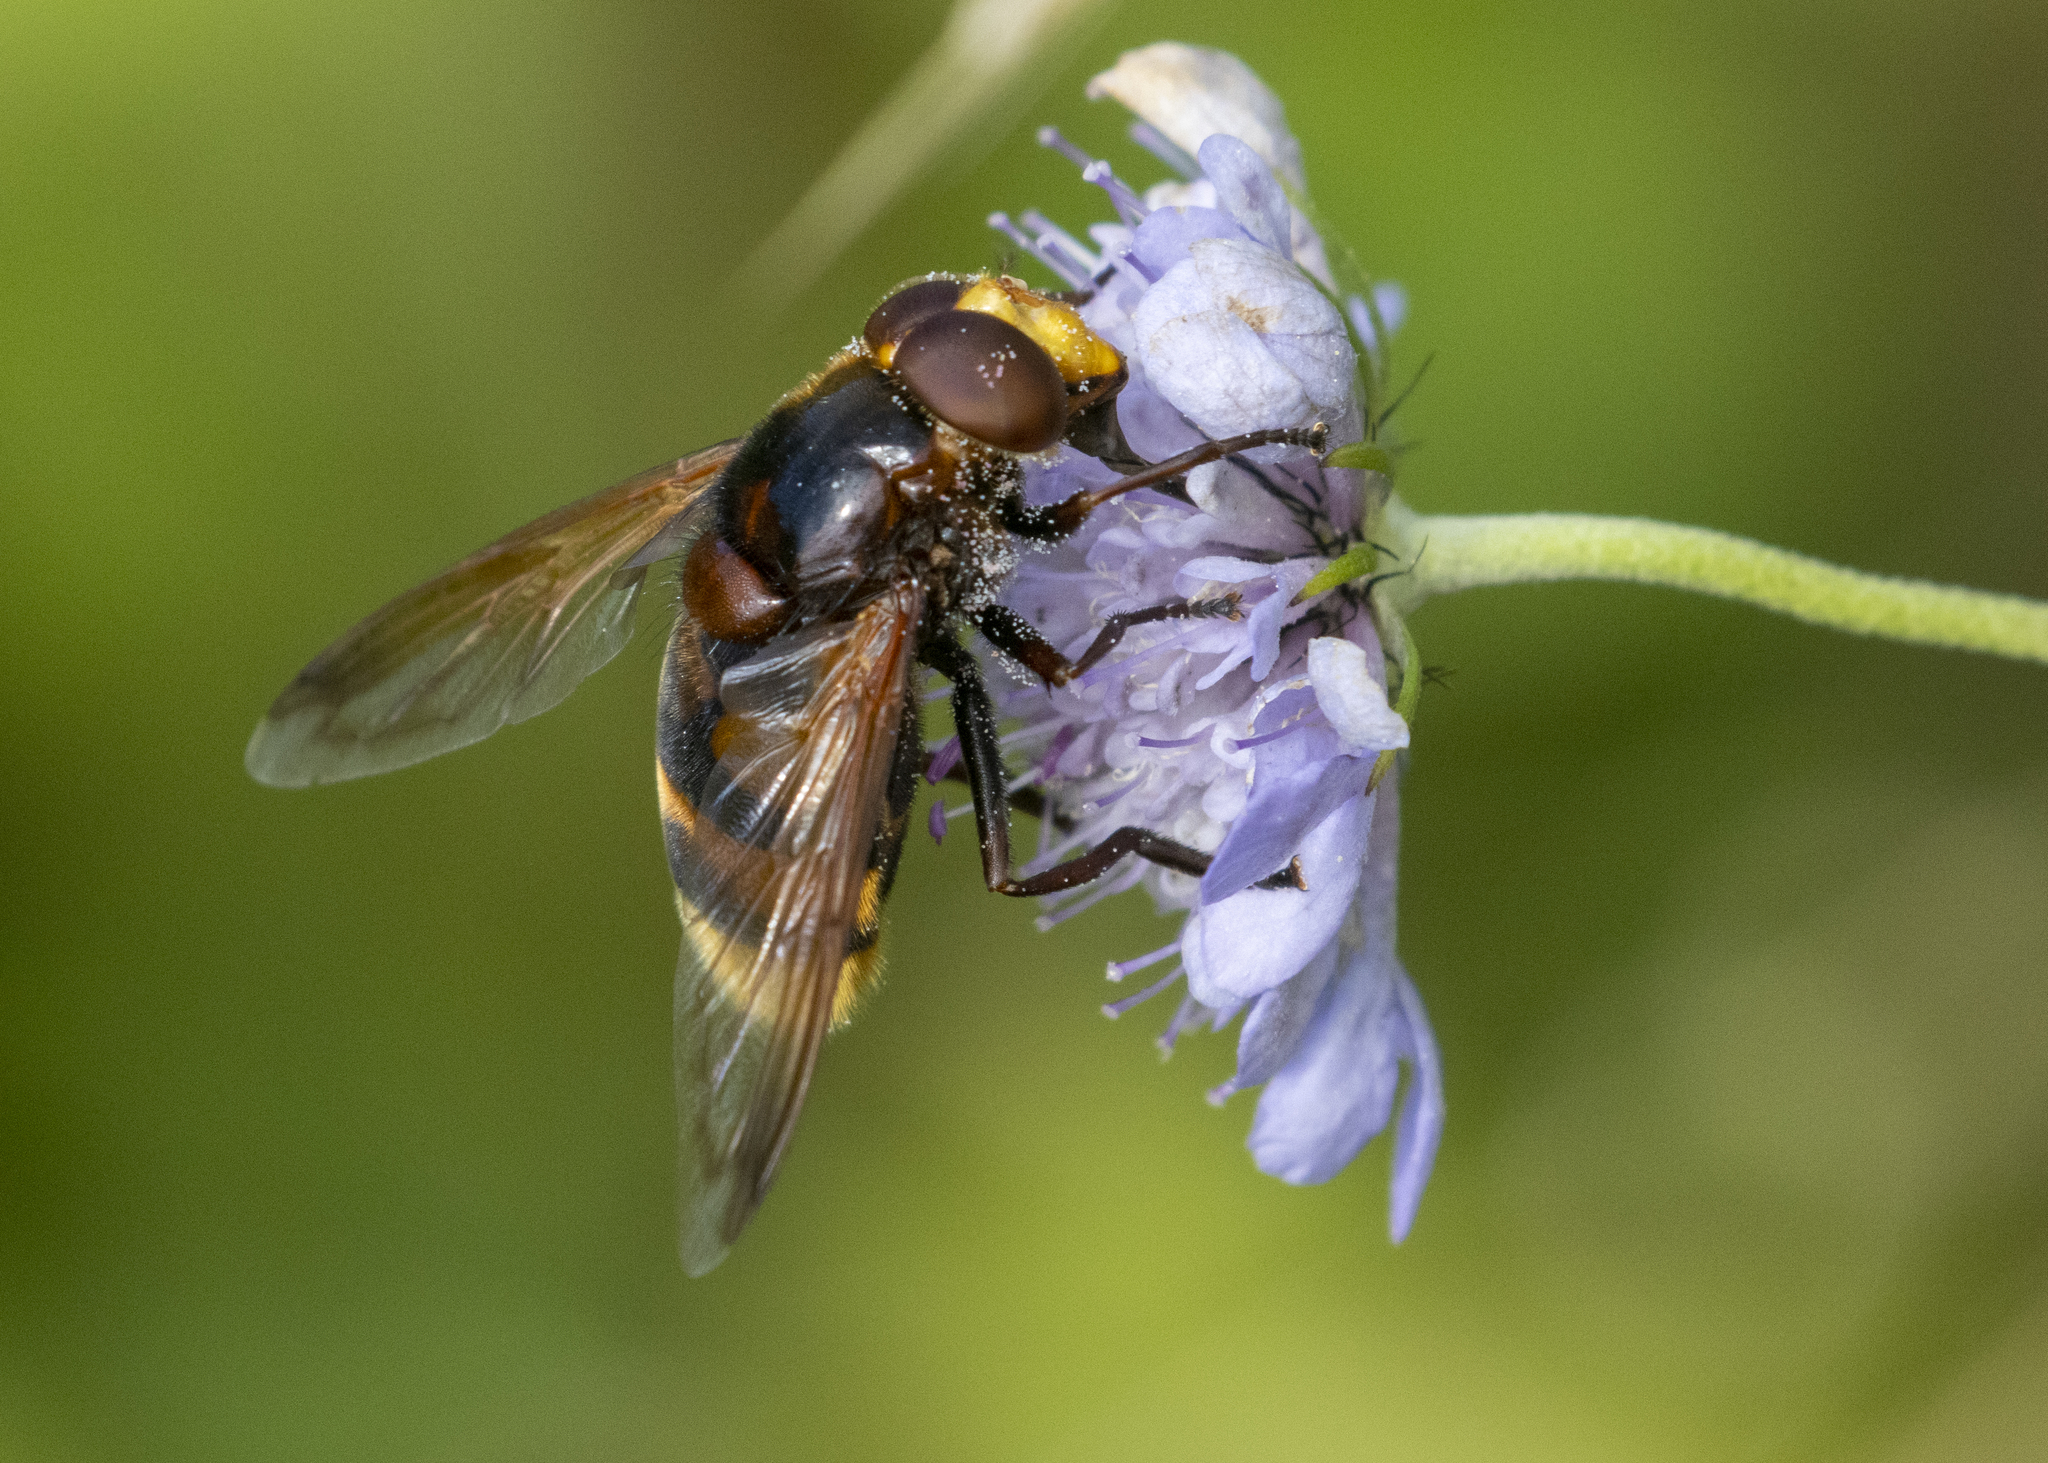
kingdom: Animalia
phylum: Arthropoda
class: Insecta
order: Diptera
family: Syrphidae
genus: Volucella
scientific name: Volucella zonaria
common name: Hornet hoverfly
